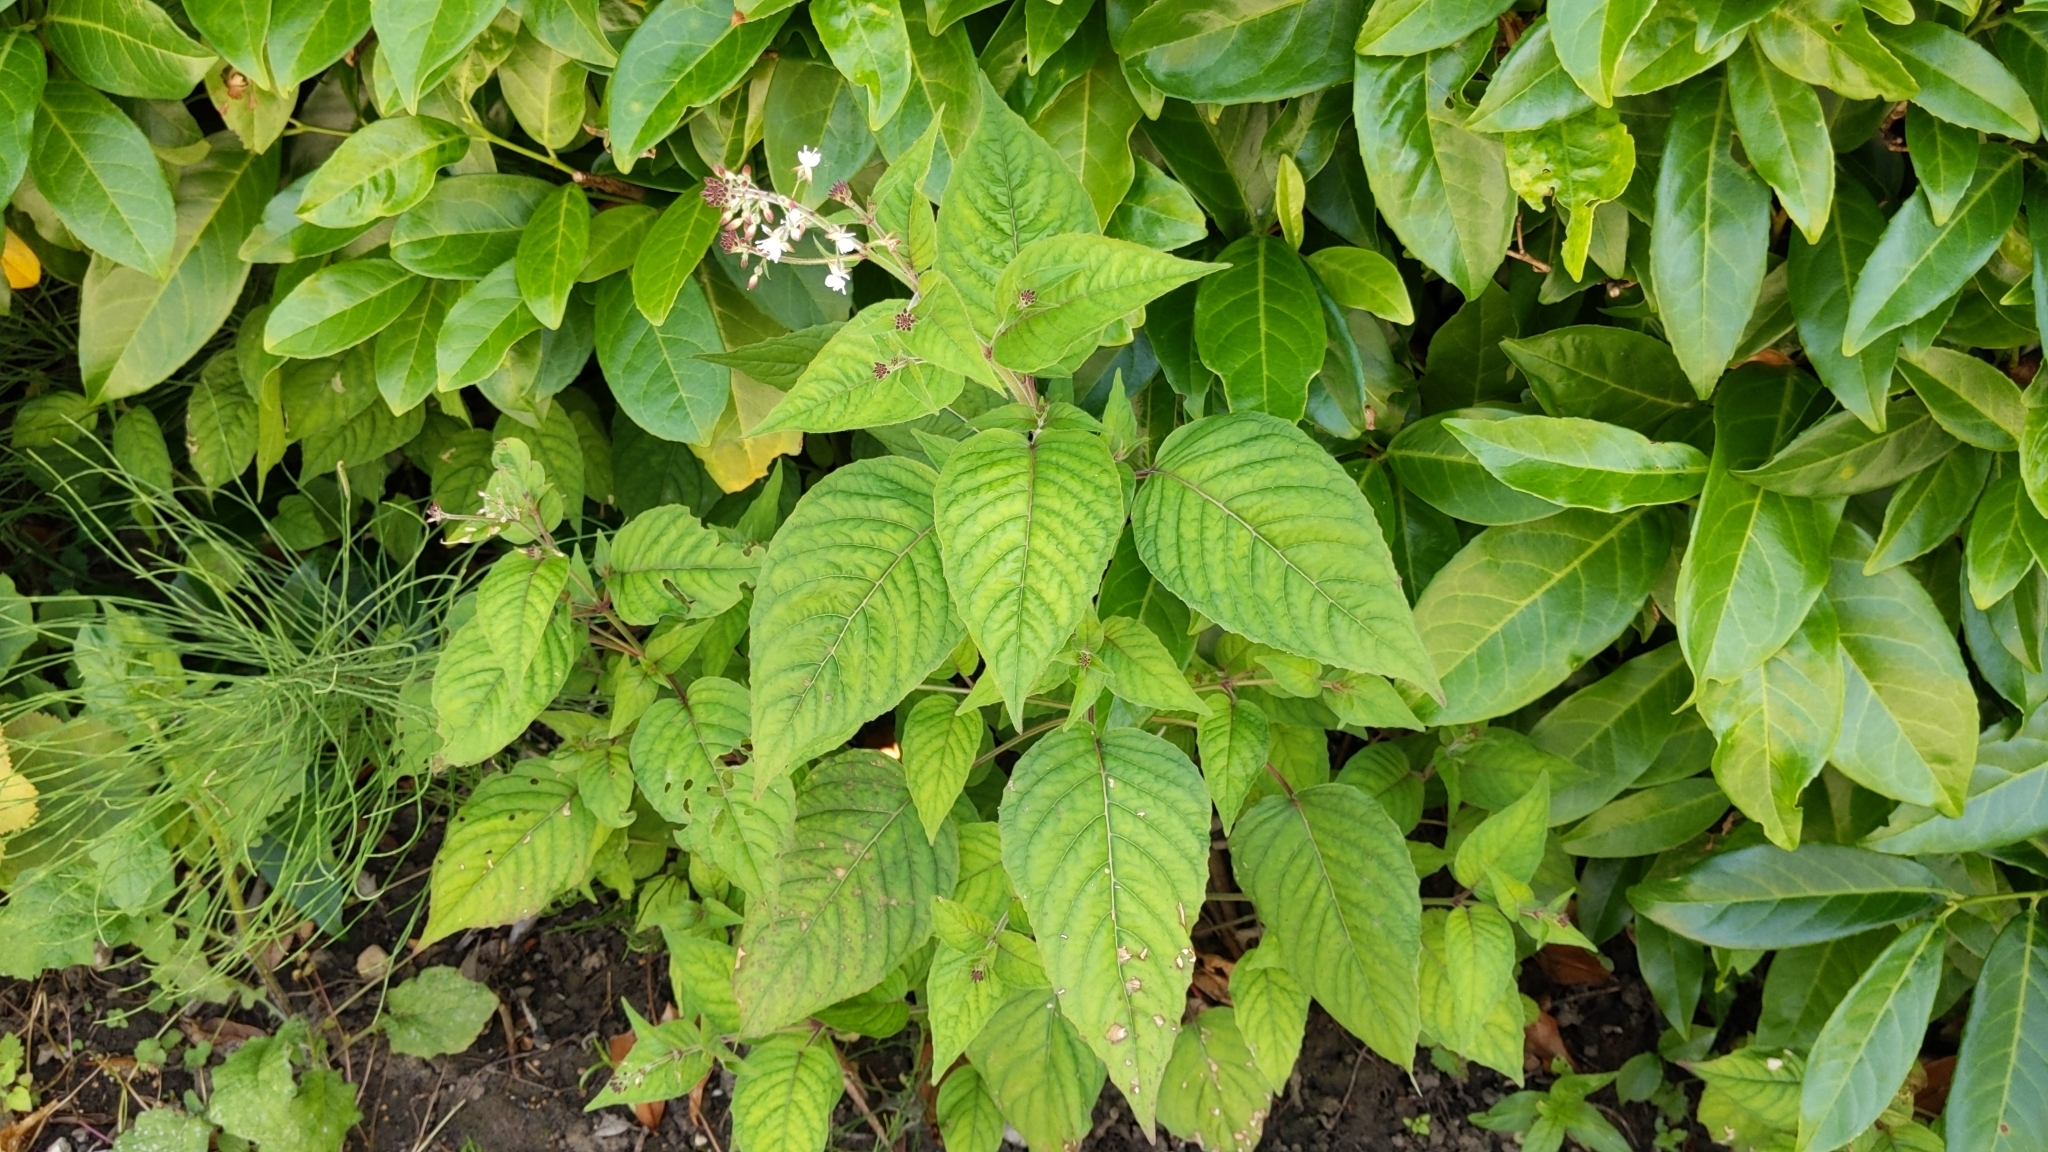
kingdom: Plantae
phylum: Tracheophyta
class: Magnoliopsida
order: Myrtales
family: Onagraceae
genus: Circaea
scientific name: Circaea lutetiana
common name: Enchanter's-nightshade
